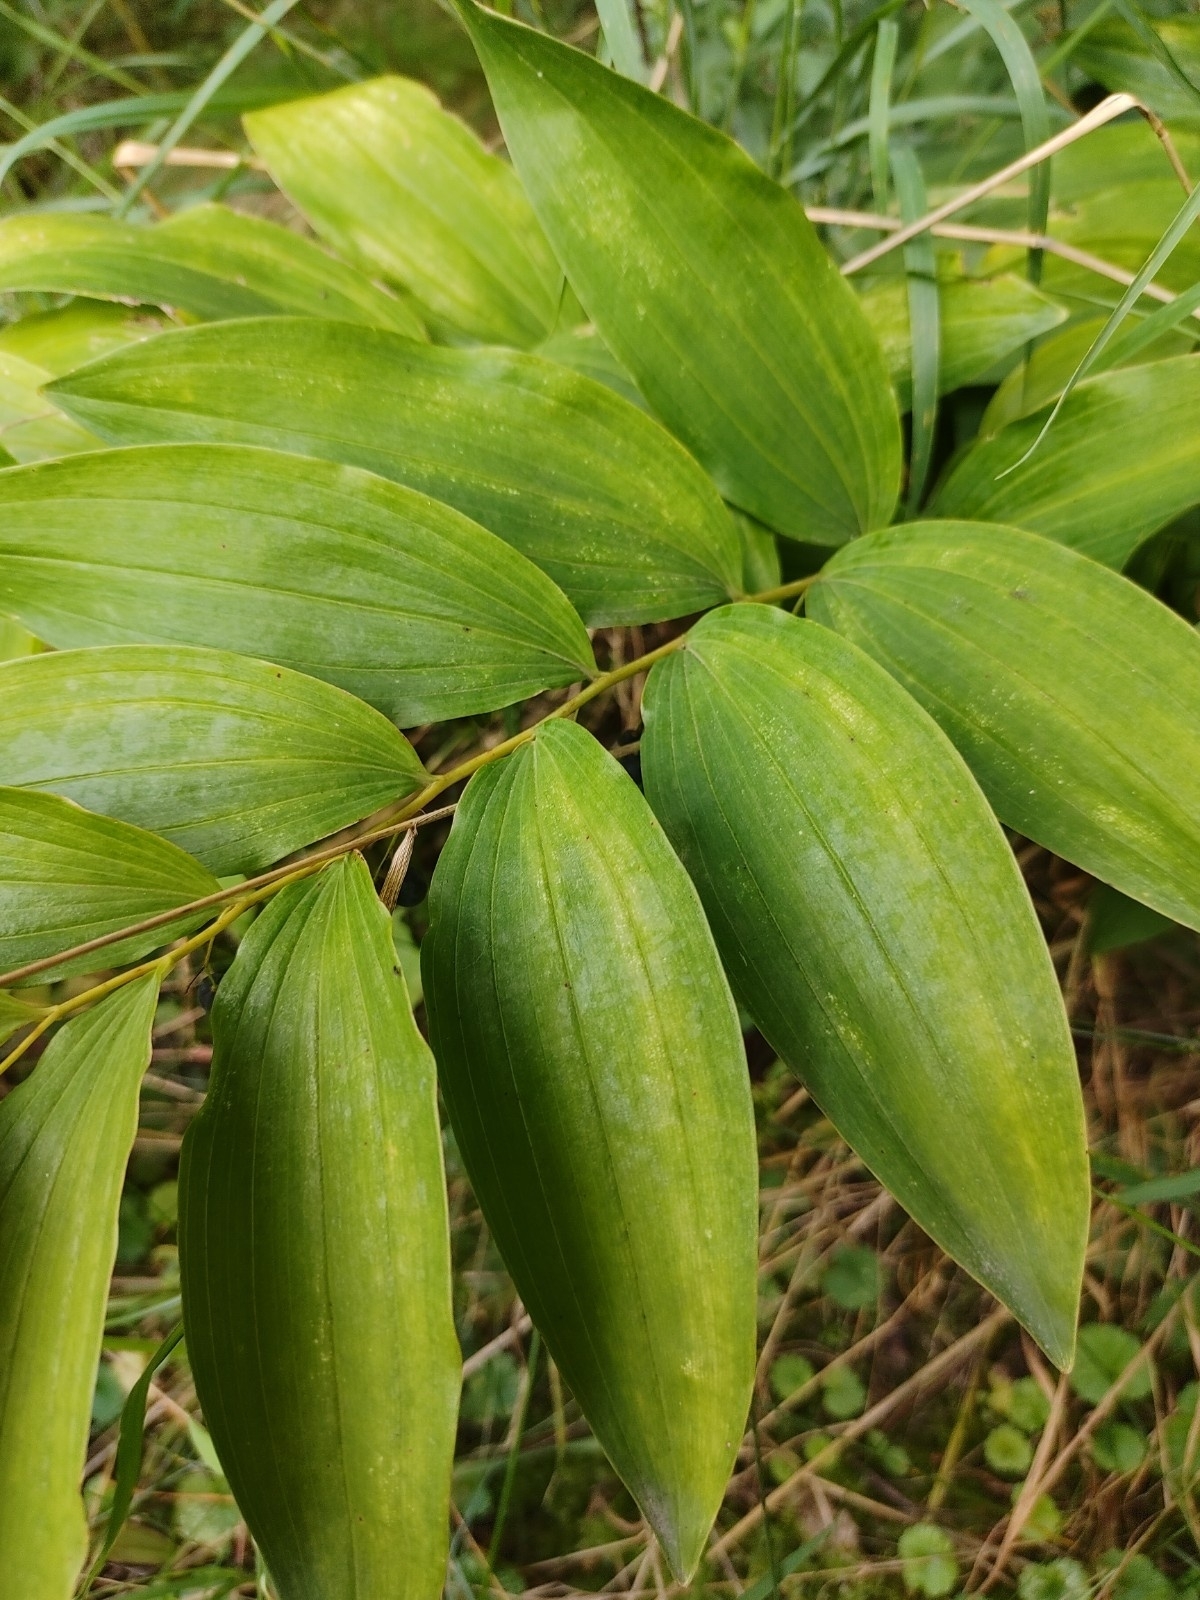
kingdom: Plantae
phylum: Tracheophyta
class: Liliopsida
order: Asparagales
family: Asparagaceae
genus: Polygonatum
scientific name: Polygonatum multiflorum
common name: Solomon's-seal
